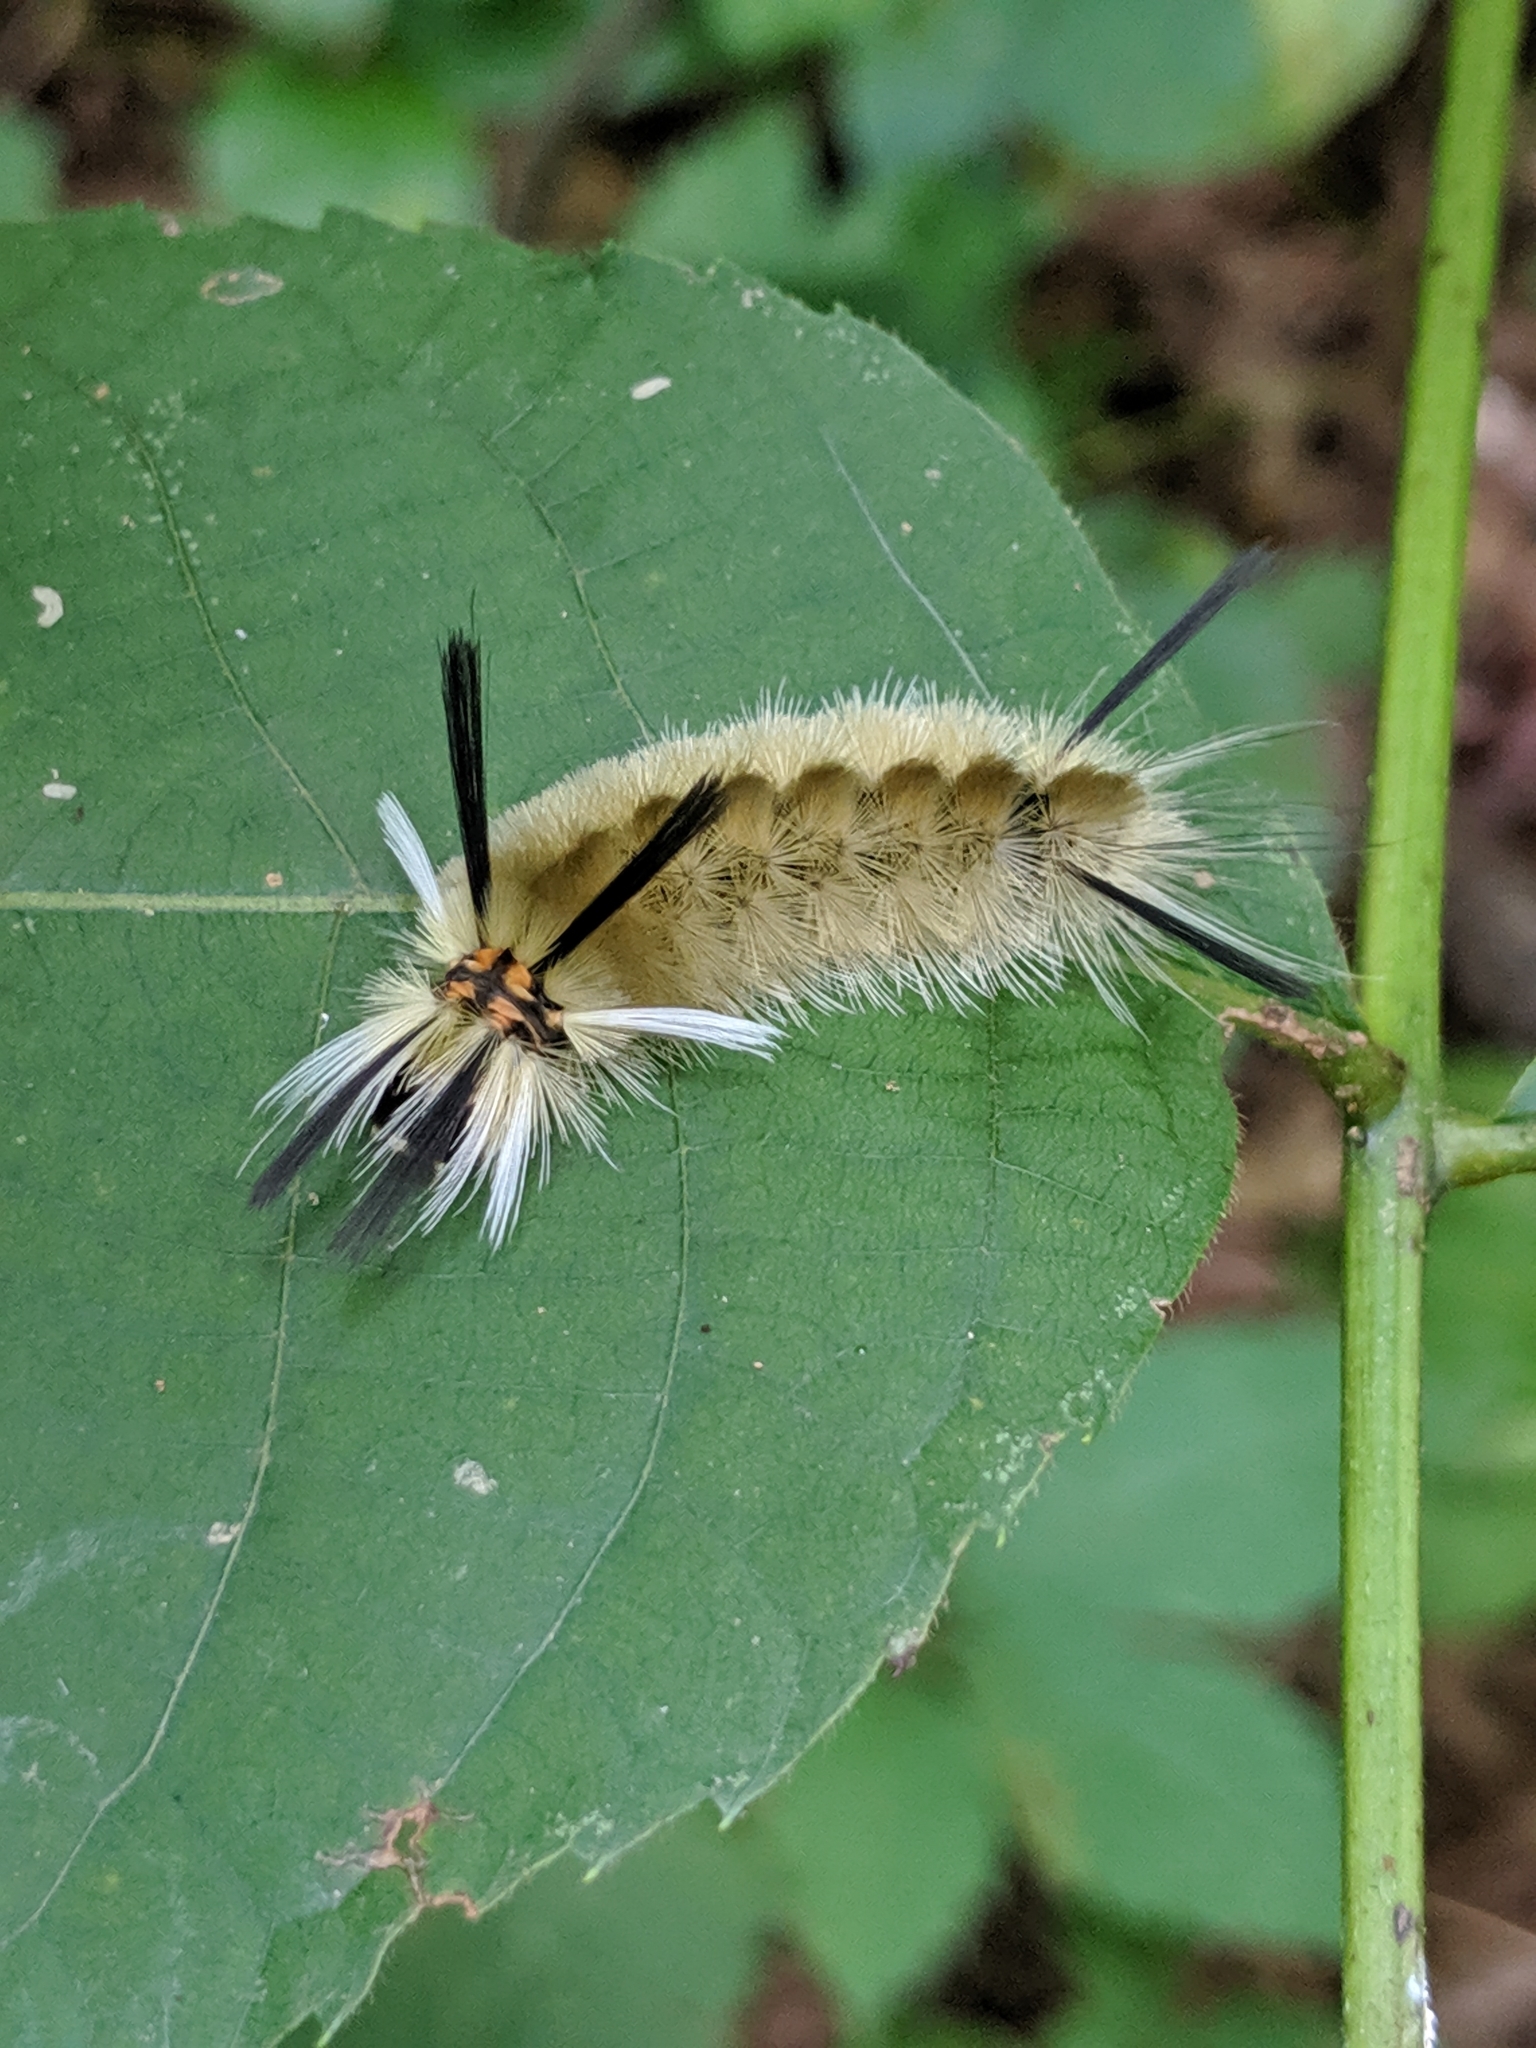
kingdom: Animalia
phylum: Arthropoda
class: Insecta
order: Lepidoptera
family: Erebidae
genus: Halysidota
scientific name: Halysidota tessellaris
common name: Banded tussock moth
